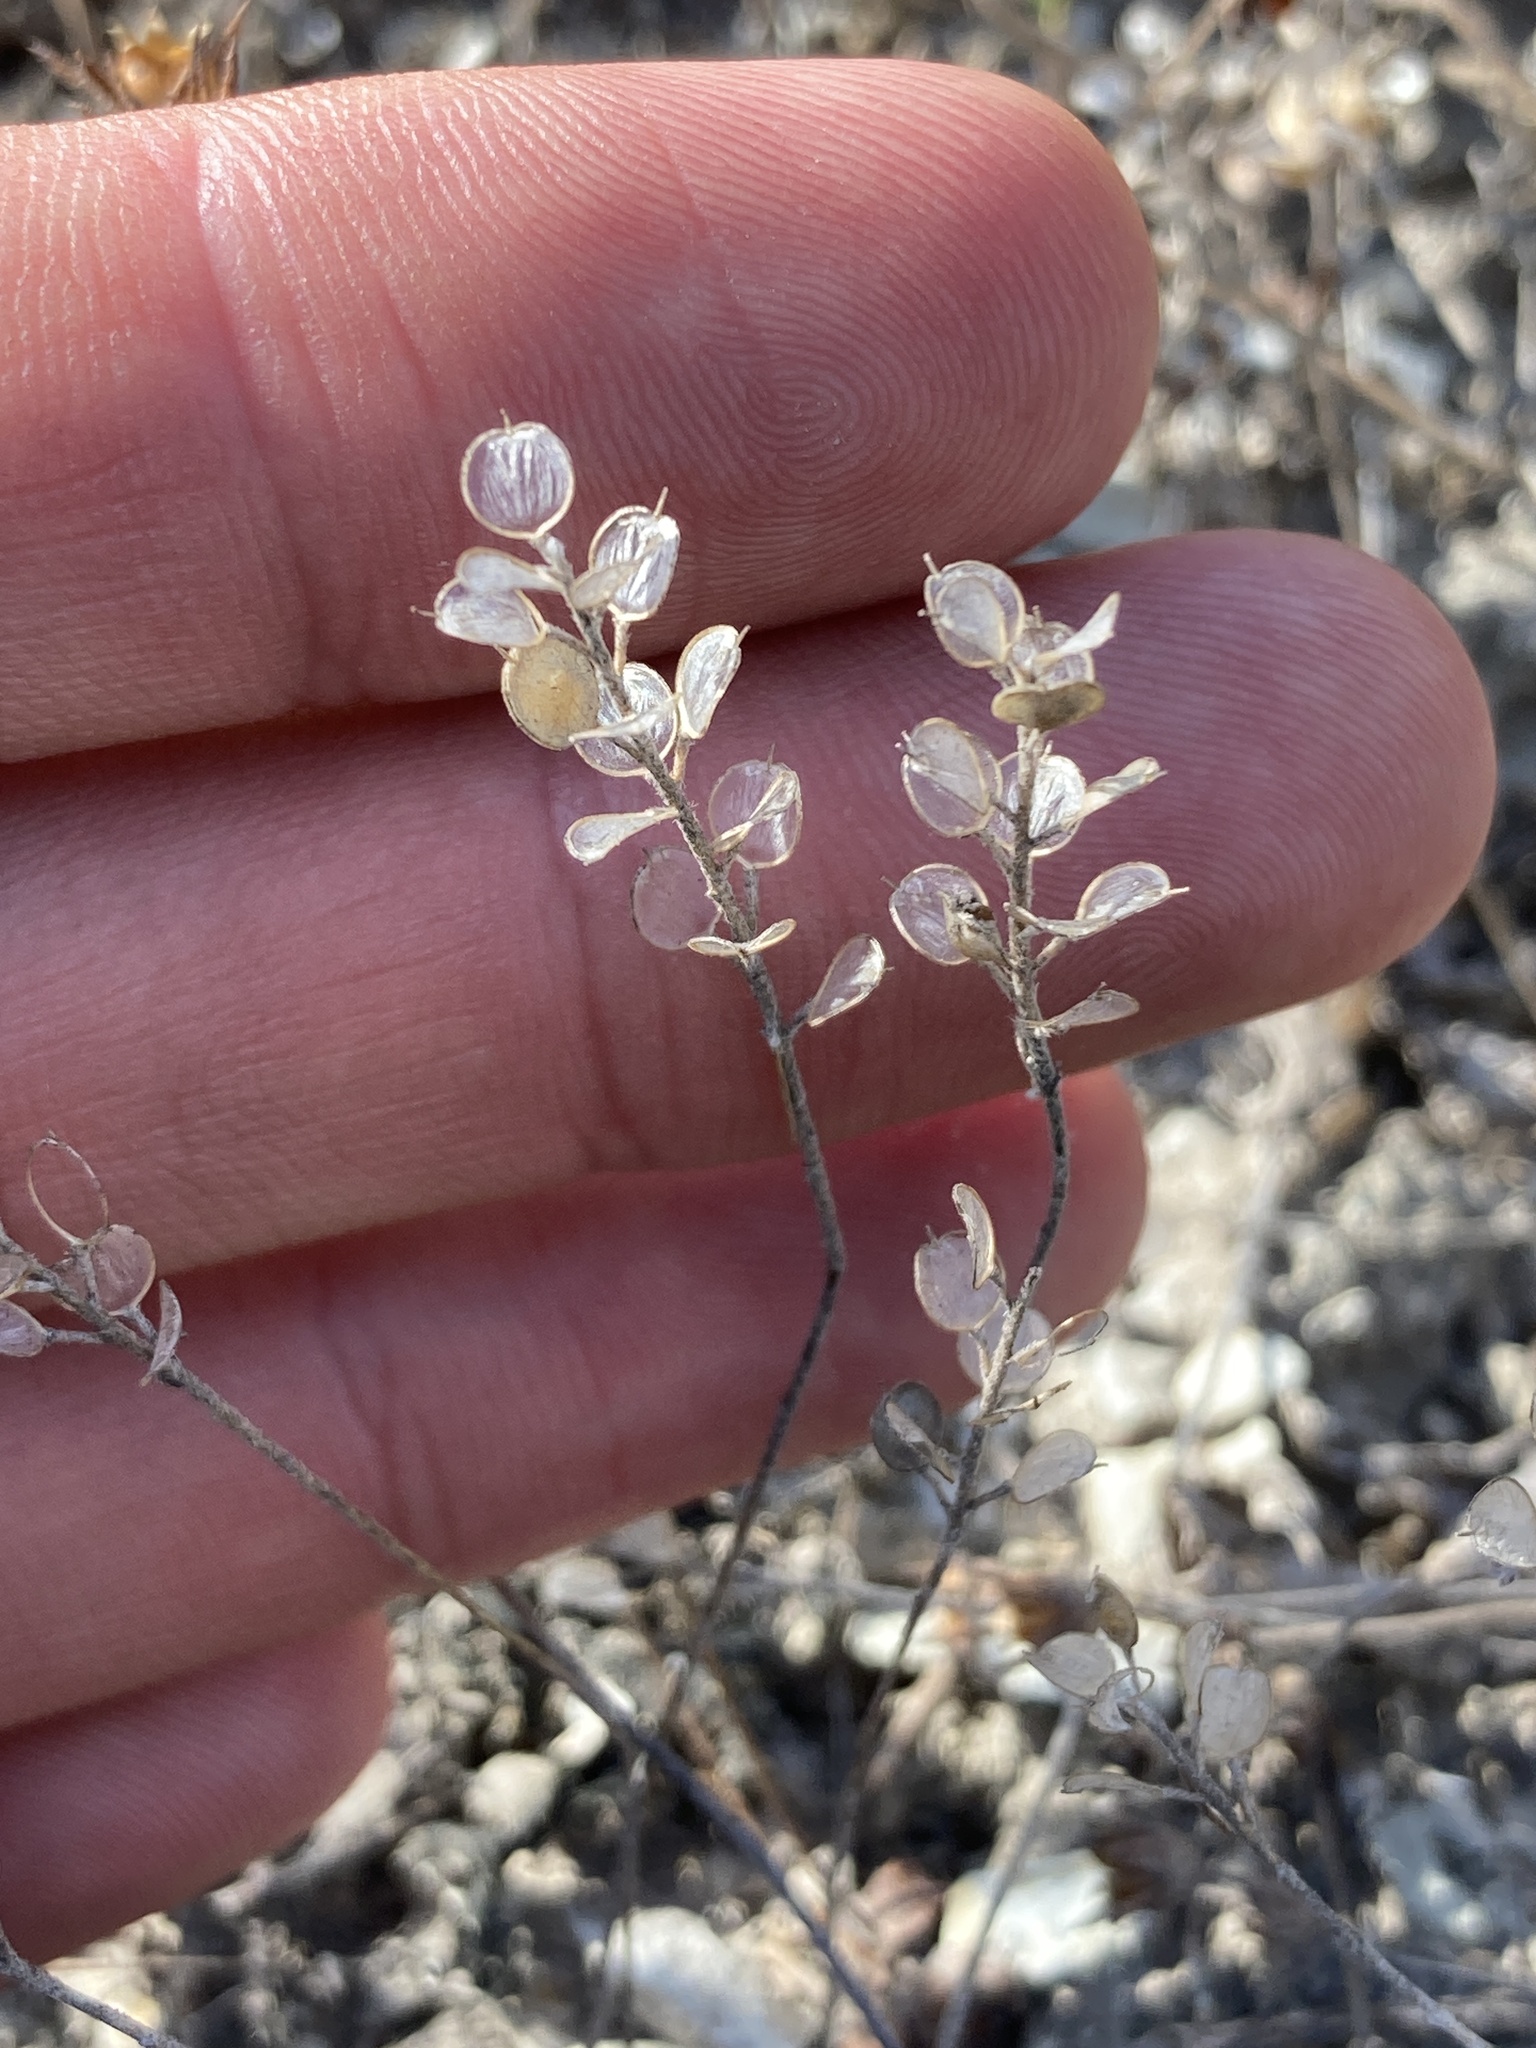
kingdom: Plantae
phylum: Tracheophyta
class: Magnoliopsida
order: Brassicales
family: Brassicaceae
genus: Alyssum
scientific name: Alyssum turkestanicum
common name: Desert alyssum
